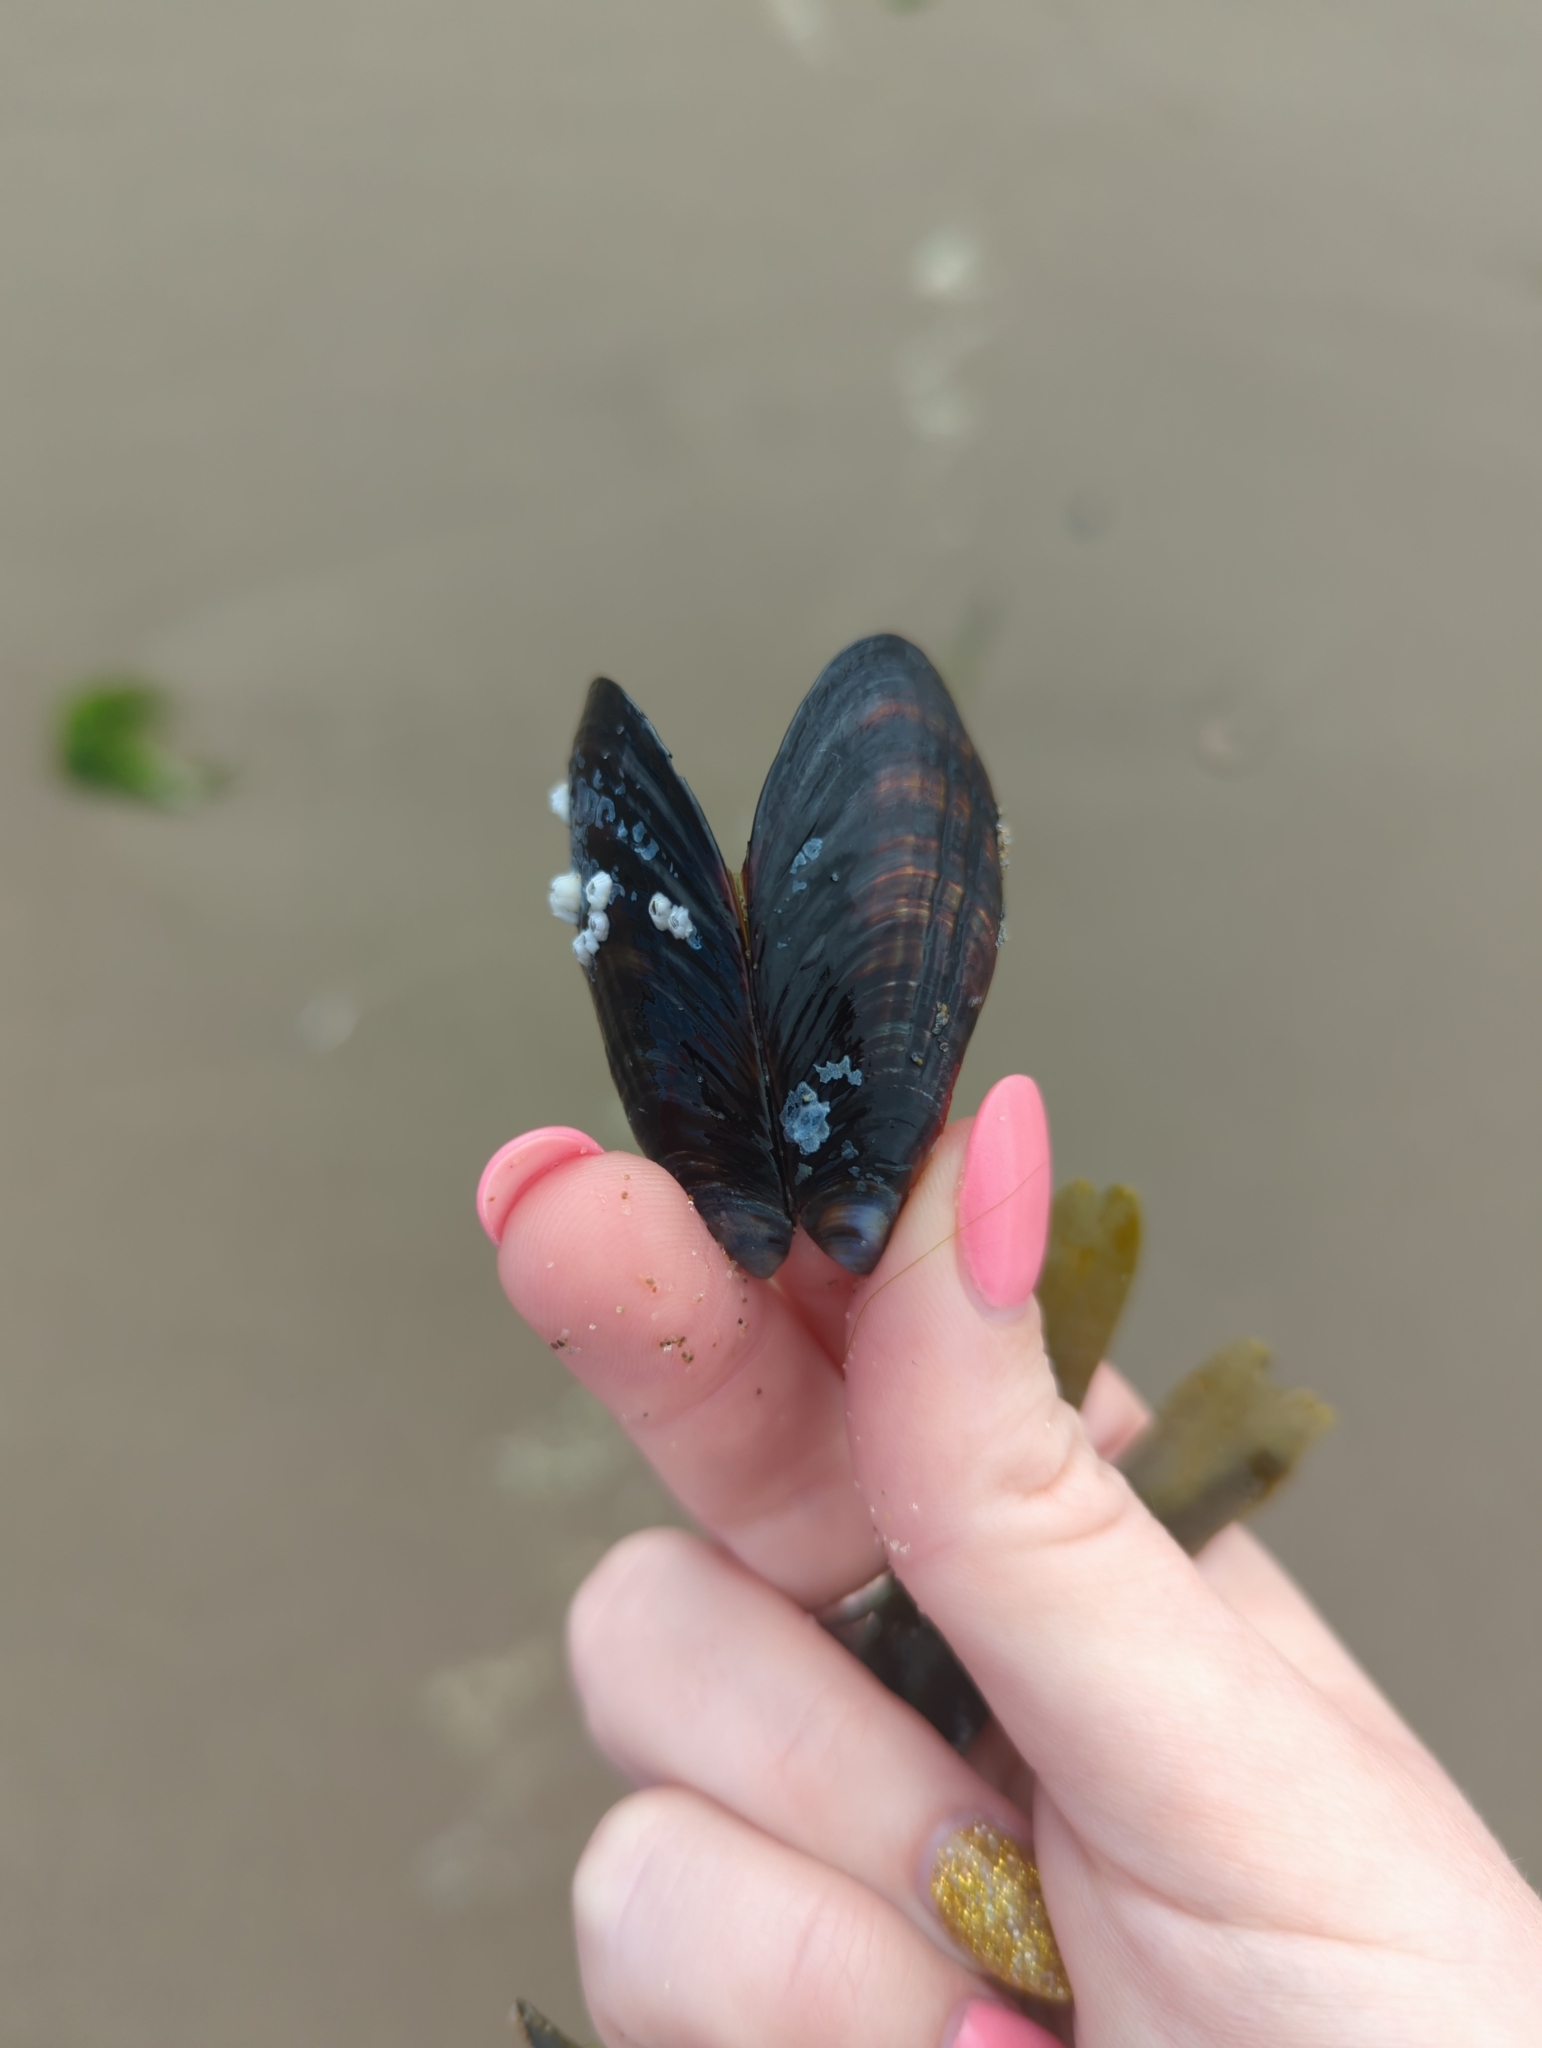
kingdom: Animalia
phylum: Mollusca
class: Bivalvia
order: Mytilida
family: Mytilidae
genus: Mytilus
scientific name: Mytilus californianus
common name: California mussel
